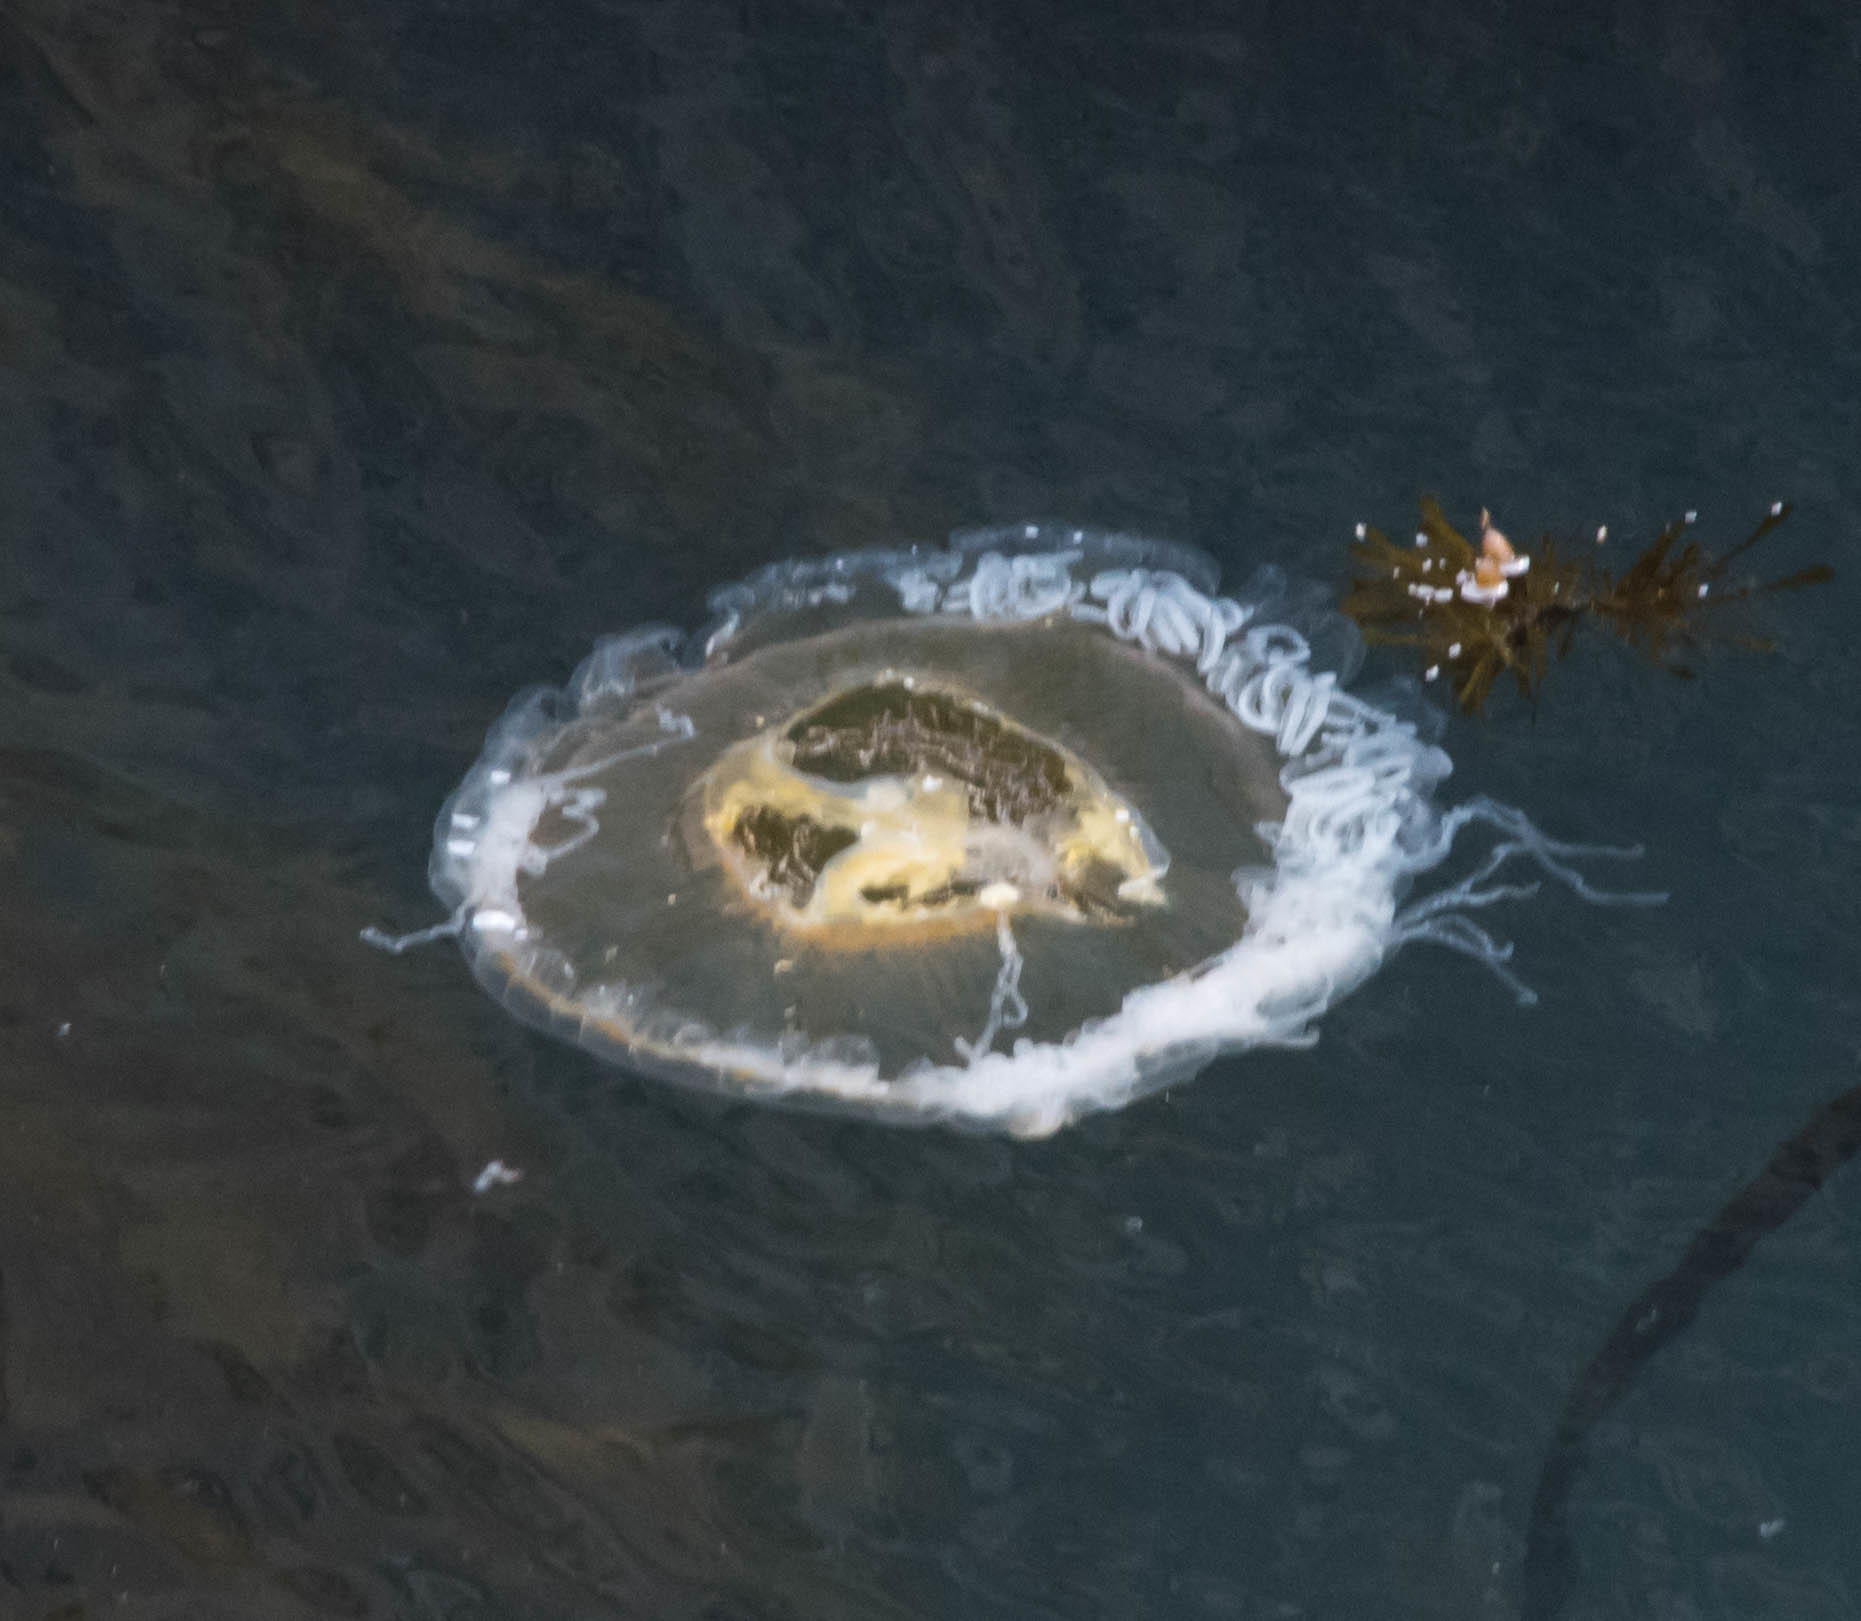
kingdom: Animalia
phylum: Cnidaria
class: Scyphozoa
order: Semaeostomeae
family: Phacellophoridae
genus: Phacellophora
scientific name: Phacellophora camtschatica
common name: Fried-egg jellyfish
